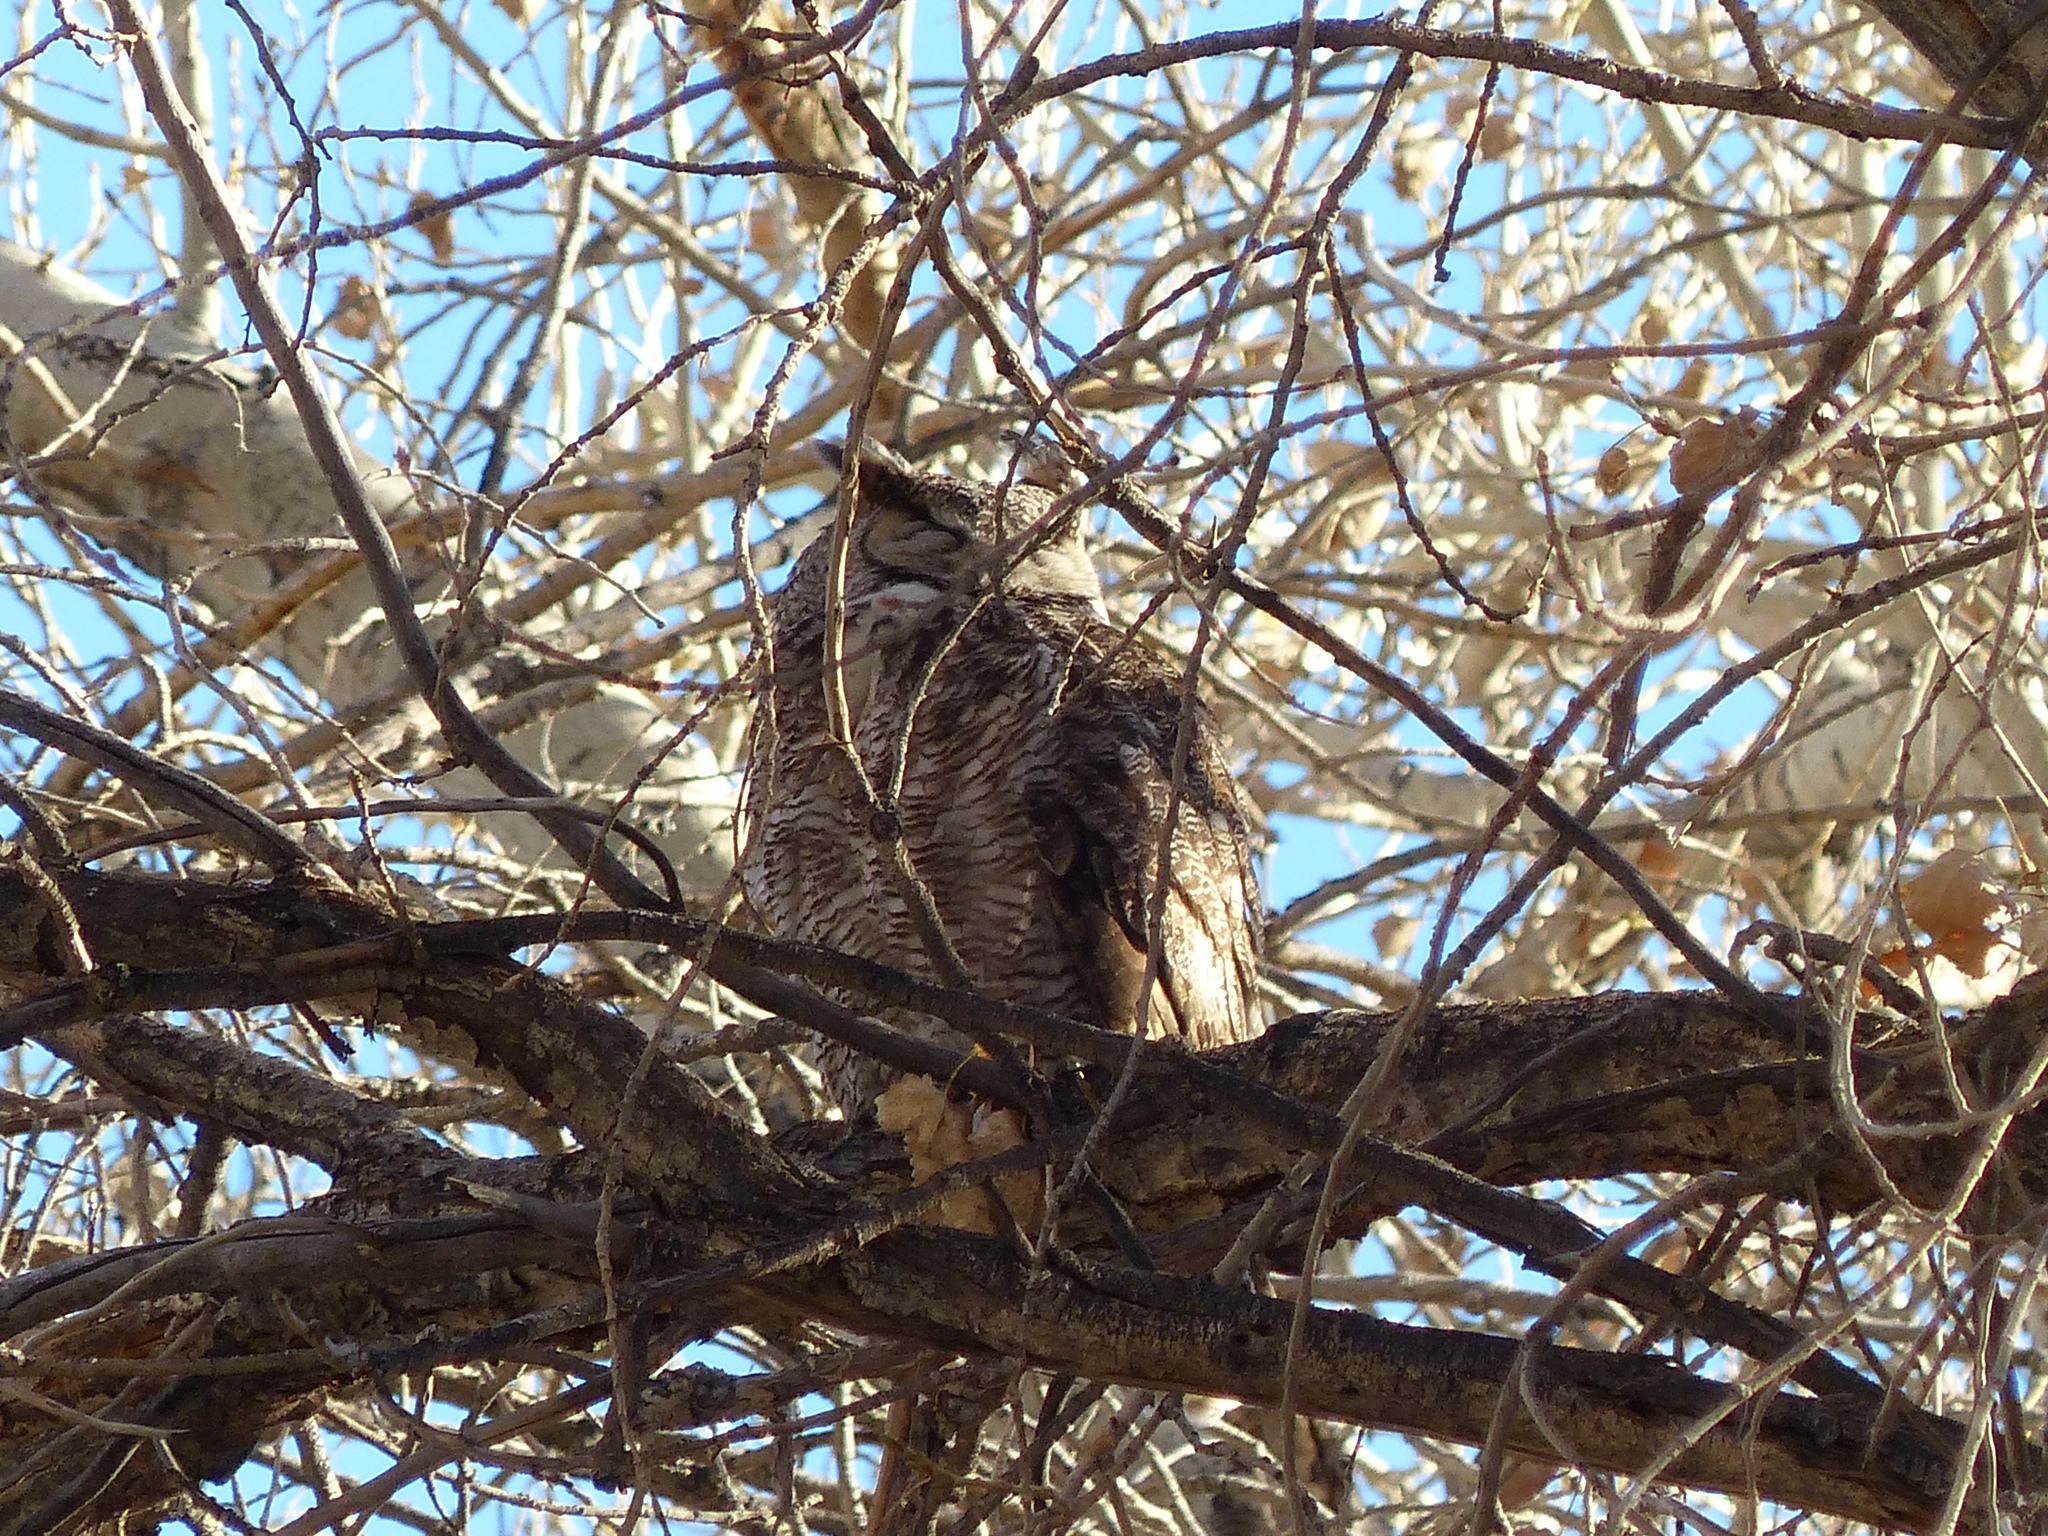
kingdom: Animalia
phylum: Chordata
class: Aves
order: Strigiformes
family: Strigidae
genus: Bubo
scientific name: Bubo virginianus
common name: Great horned owl
